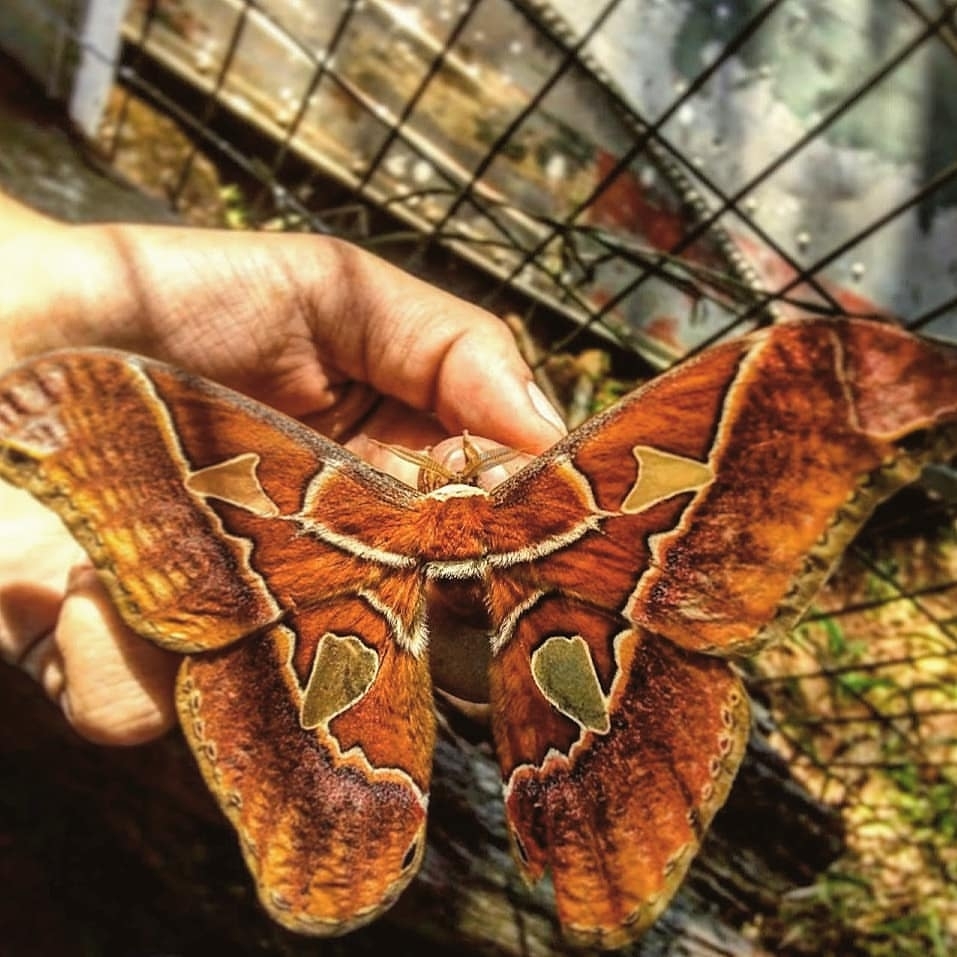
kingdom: Animalia
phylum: Arthropoda
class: Insecta
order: Lepidoptera
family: Saturniidae
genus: Rothschildia
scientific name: Rothschildia hesperus
